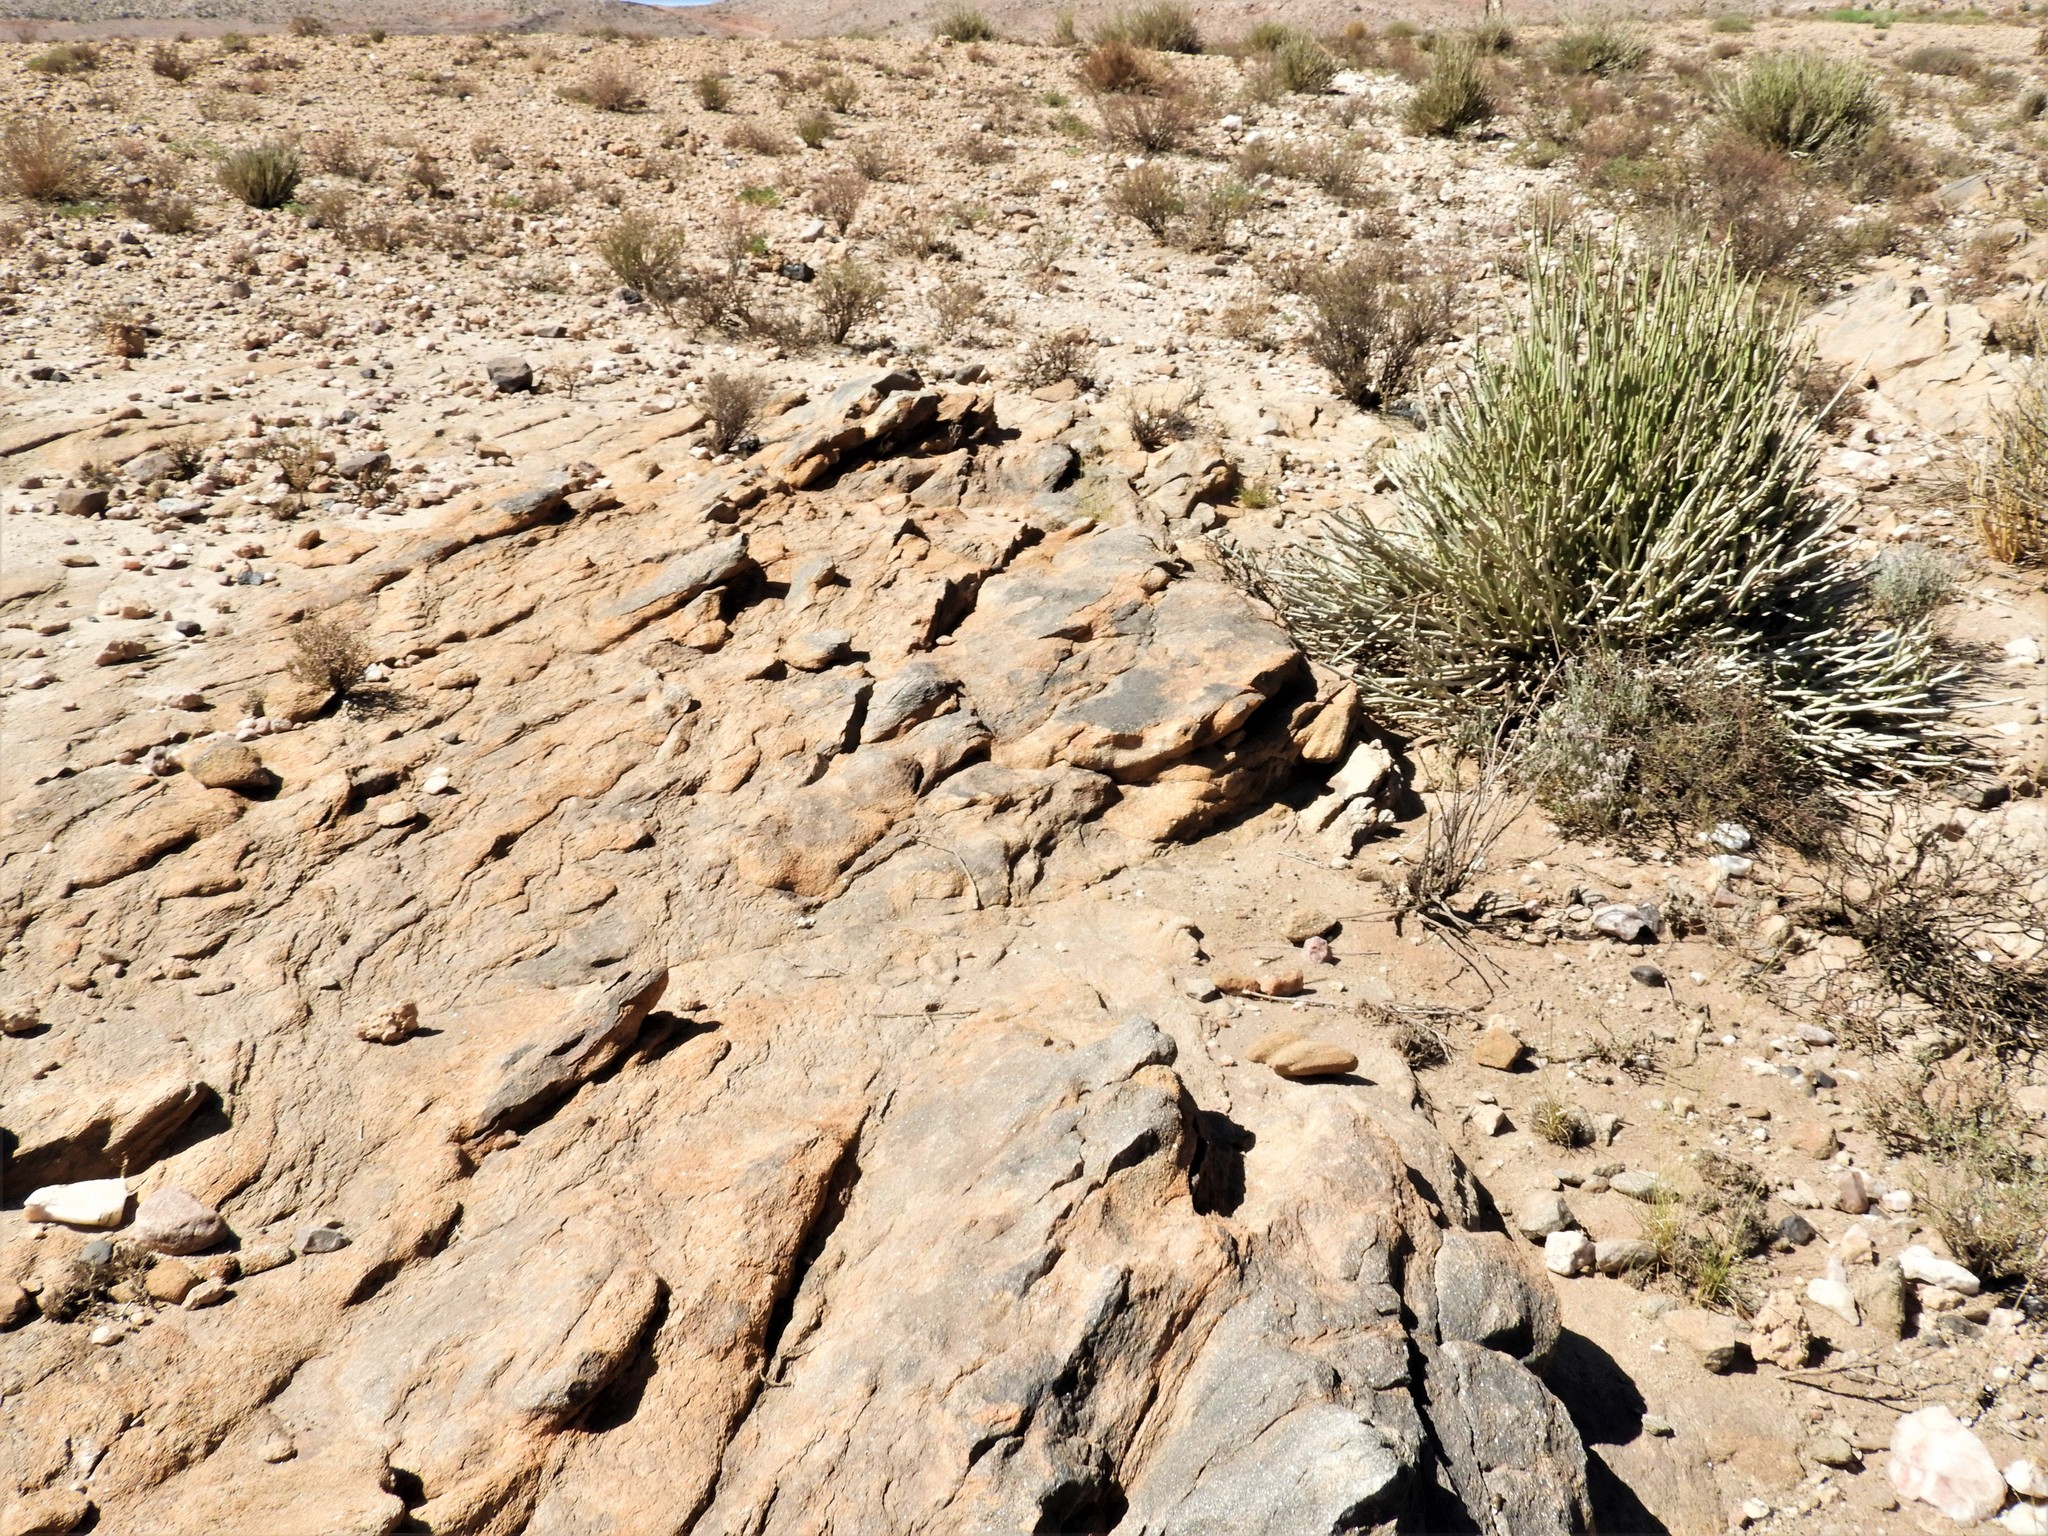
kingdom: Animalia
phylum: Chordata
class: Squamata
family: Lacertidae
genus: Pedioplanis
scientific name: Pedioplanis inornata
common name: Plain sand lizard
